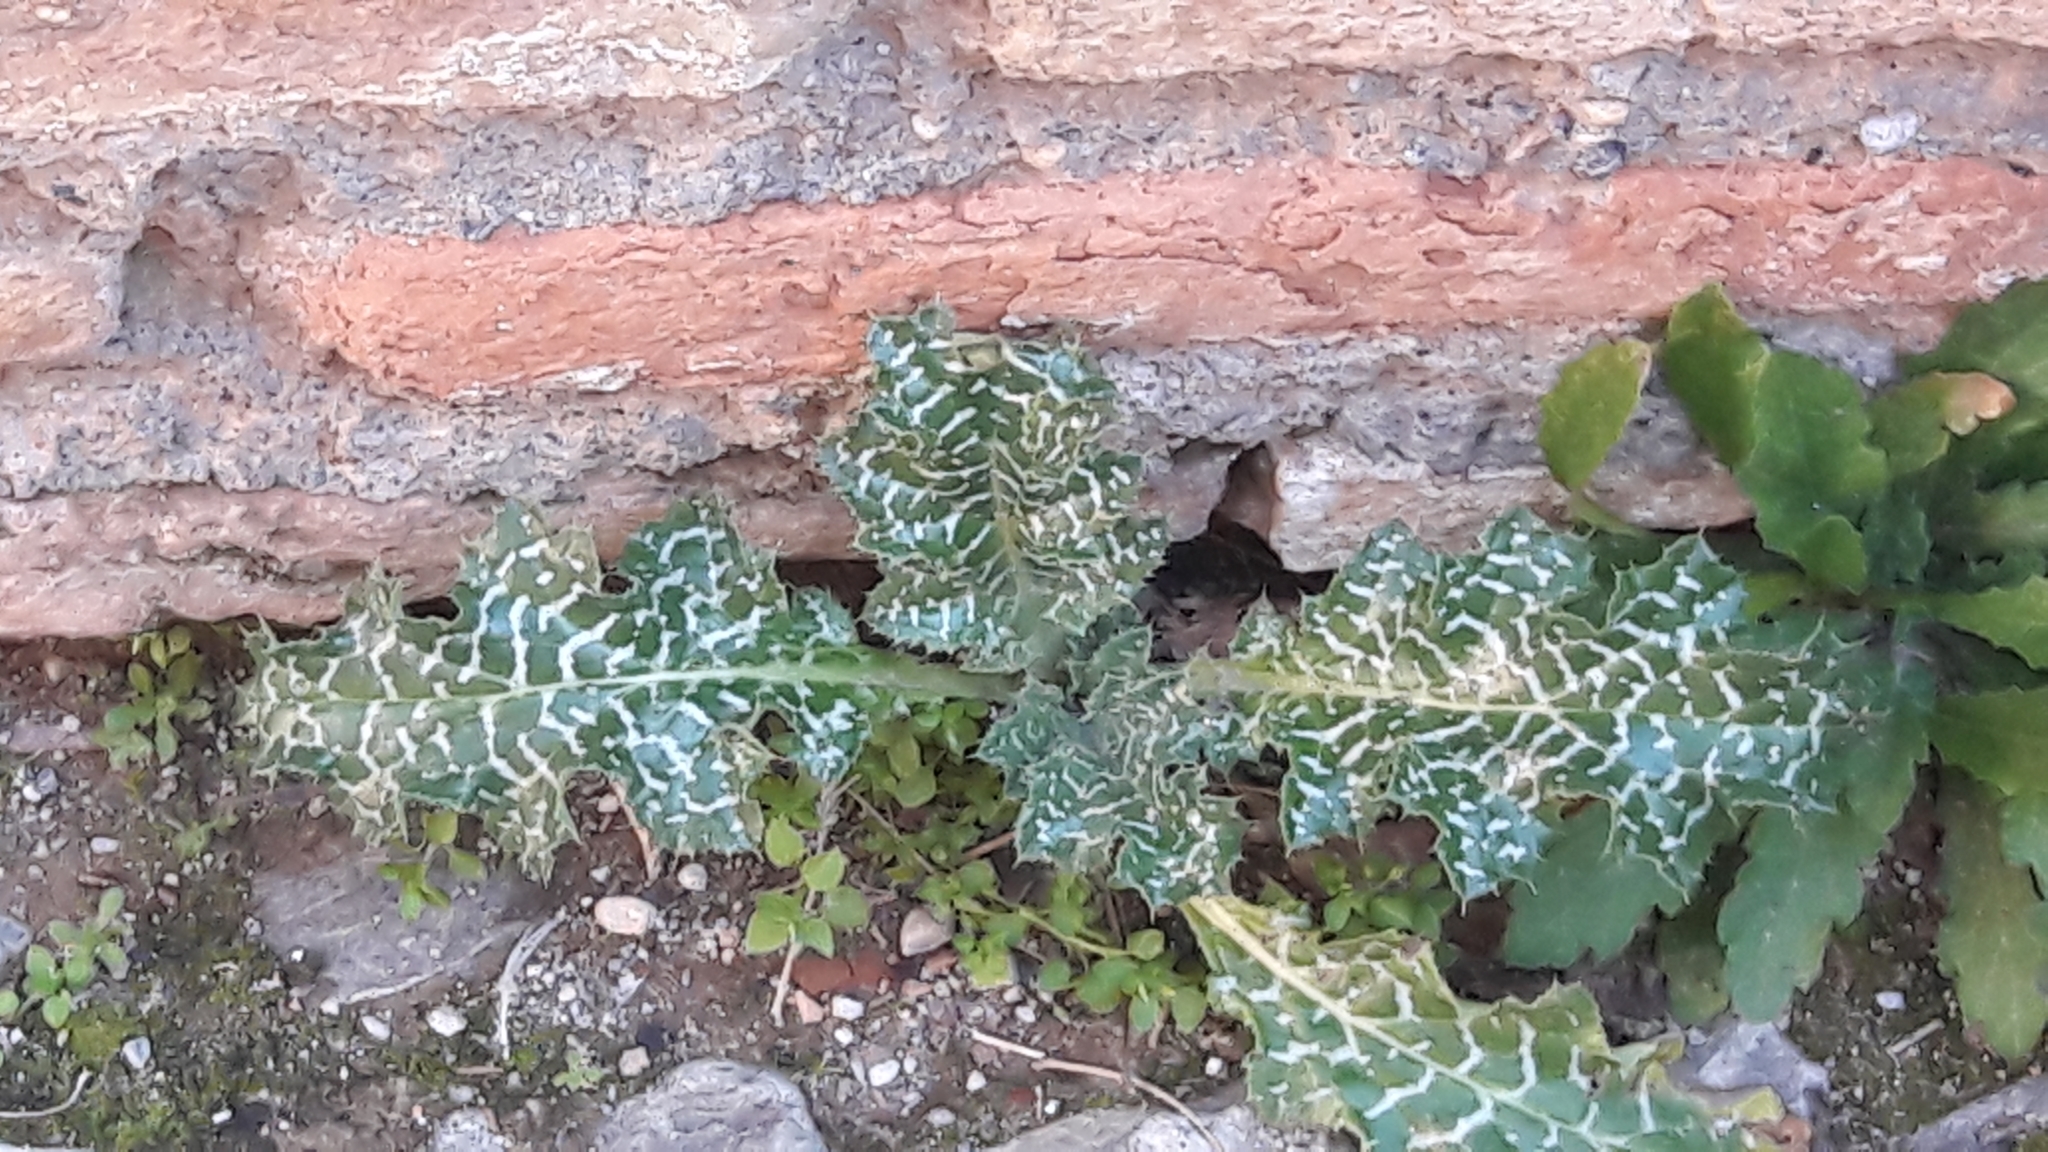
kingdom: Plantae
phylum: Tracheophyta
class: Magnoliopsida
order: Asterales
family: Asteraceae
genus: Silybum
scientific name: Silybum marianum
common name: Milk thistle
